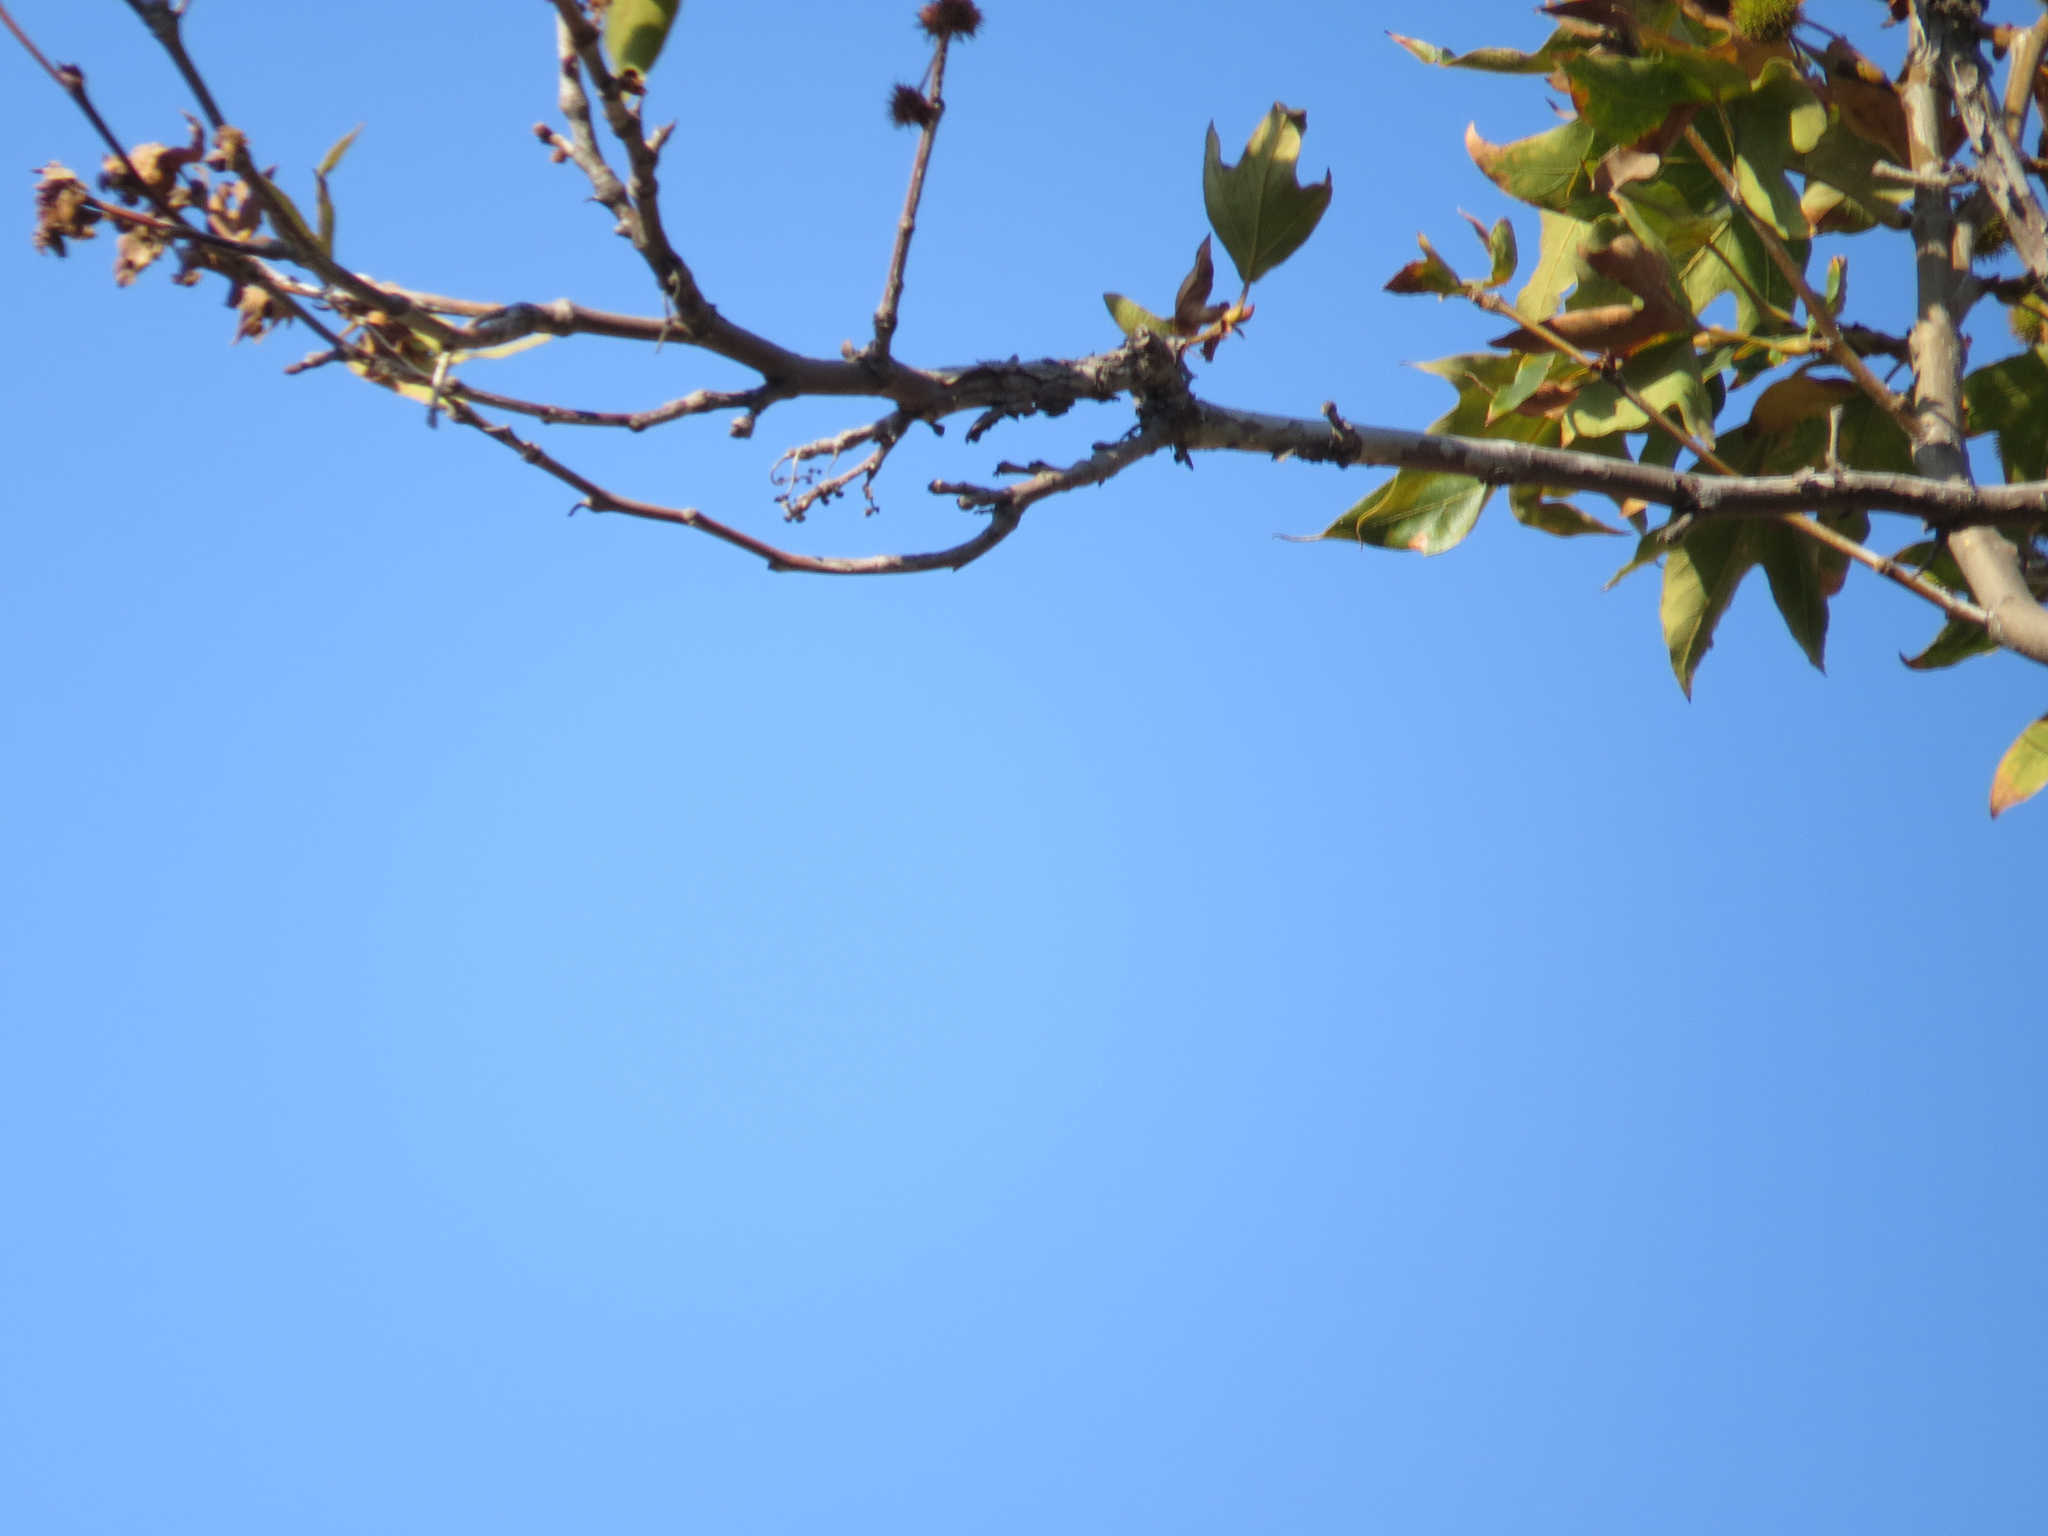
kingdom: Plantae
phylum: Tracheophyta
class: Magnoliopsida
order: Proteales
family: Platanaceae
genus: Platanus
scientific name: Platanus racemosa
